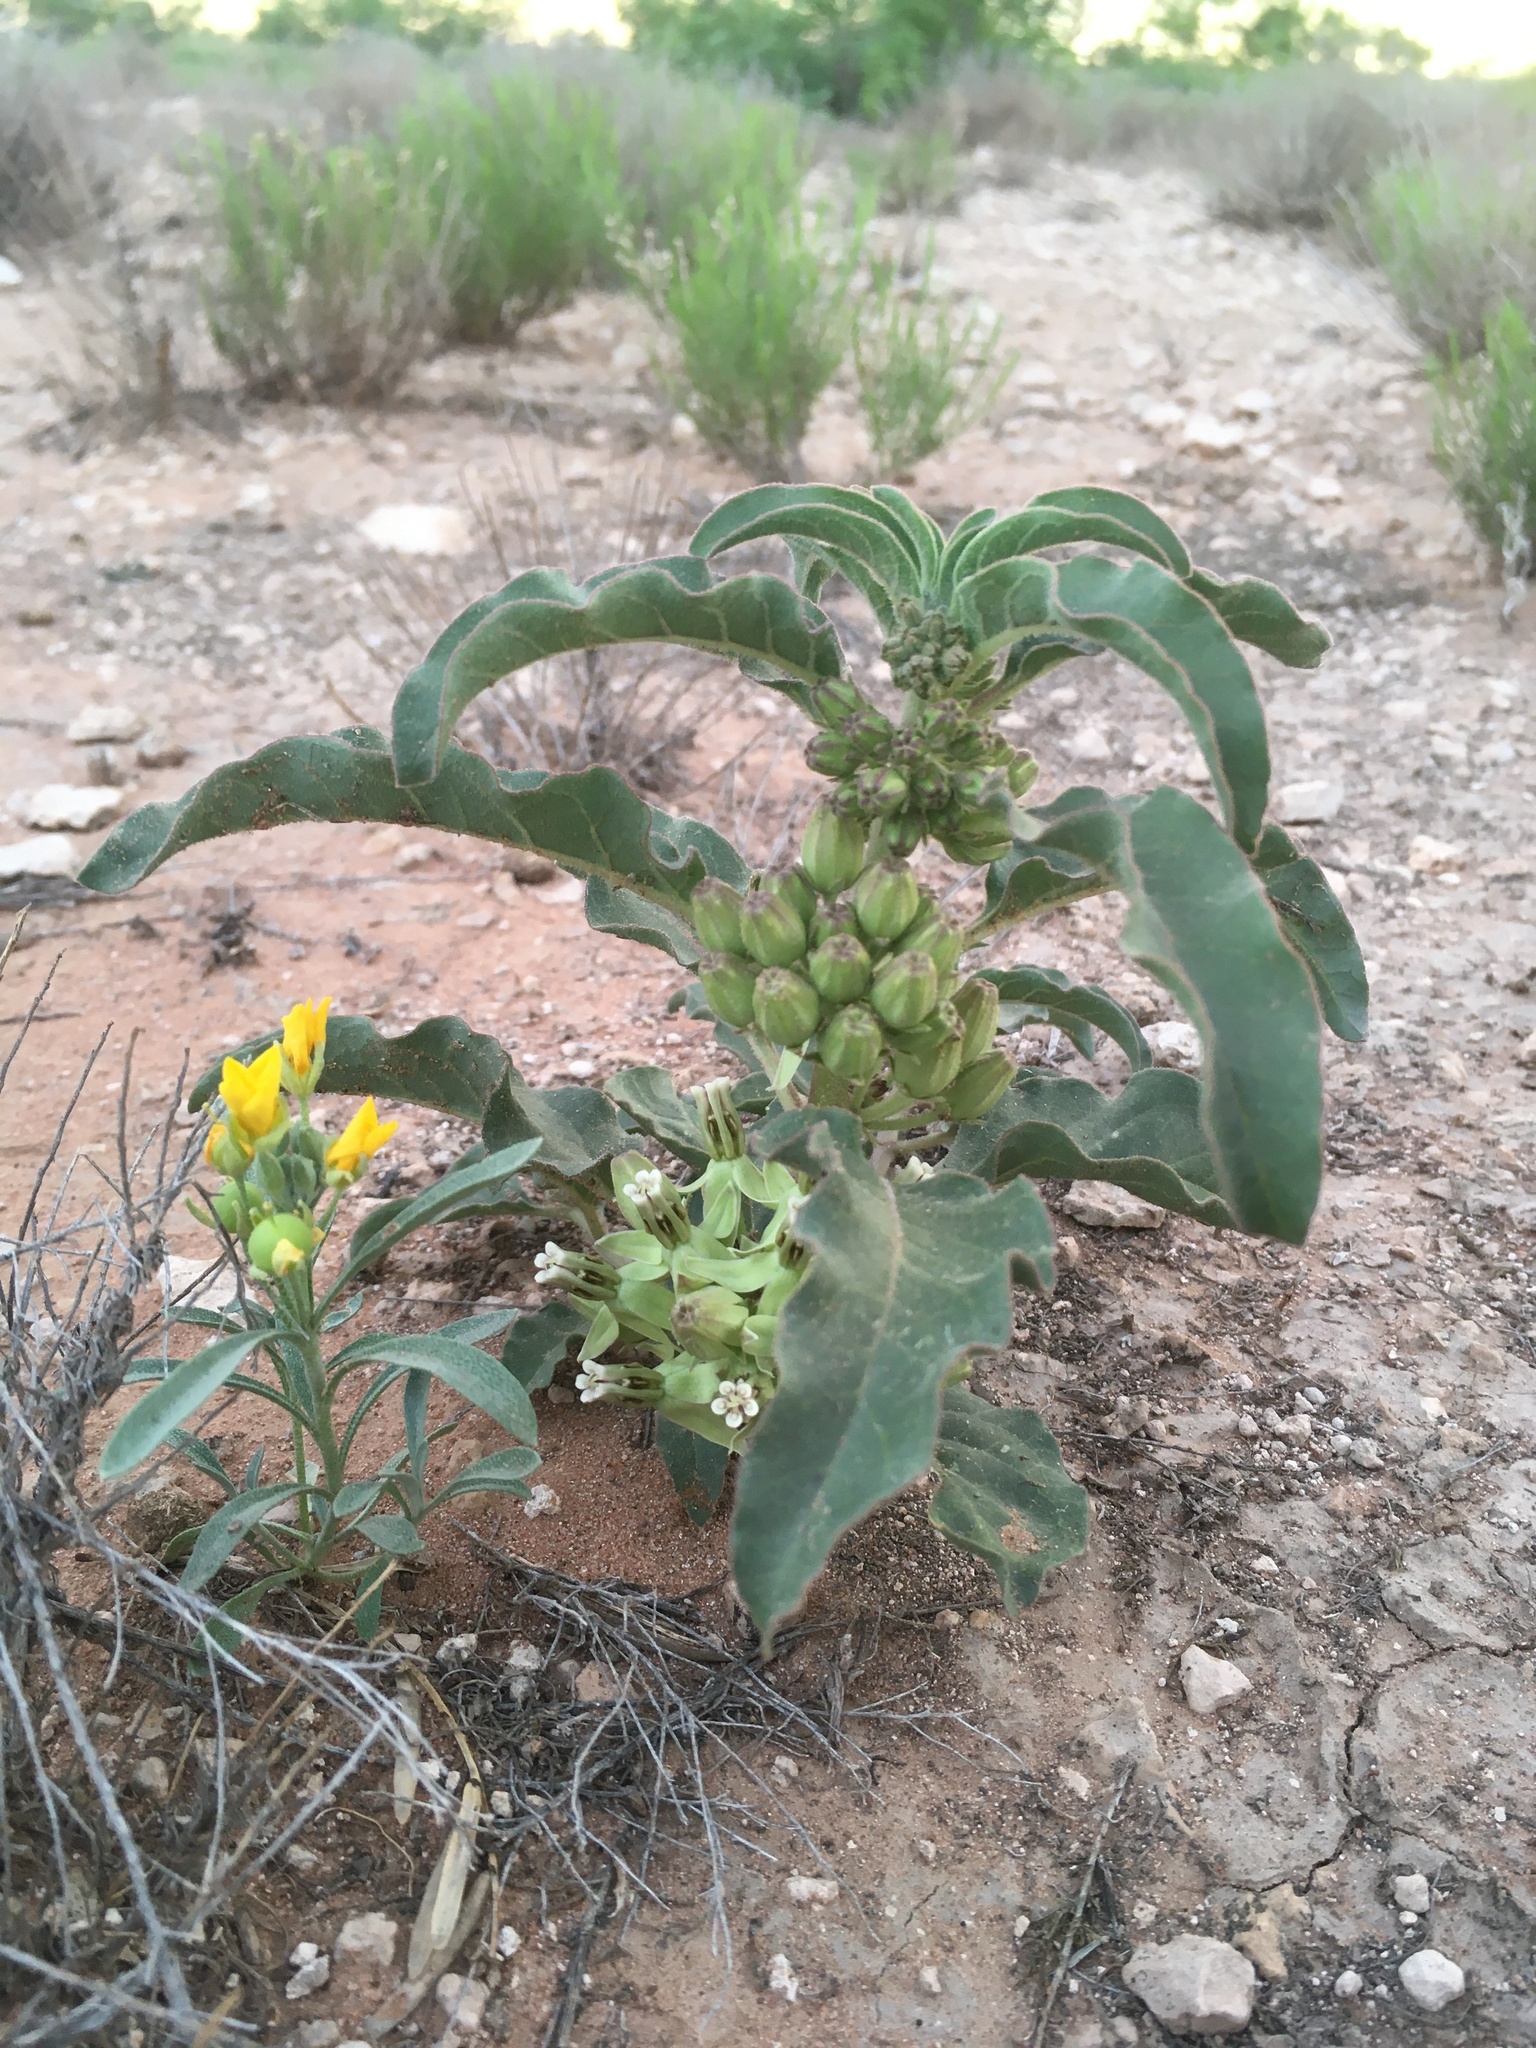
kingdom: Plantae
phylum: Tracheophyta
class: Magnoliopsida
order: Gentianales
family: Apocynaceae
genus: Asclepias
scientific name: Asclepias oenotheroides
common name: Zizotes milkweed
